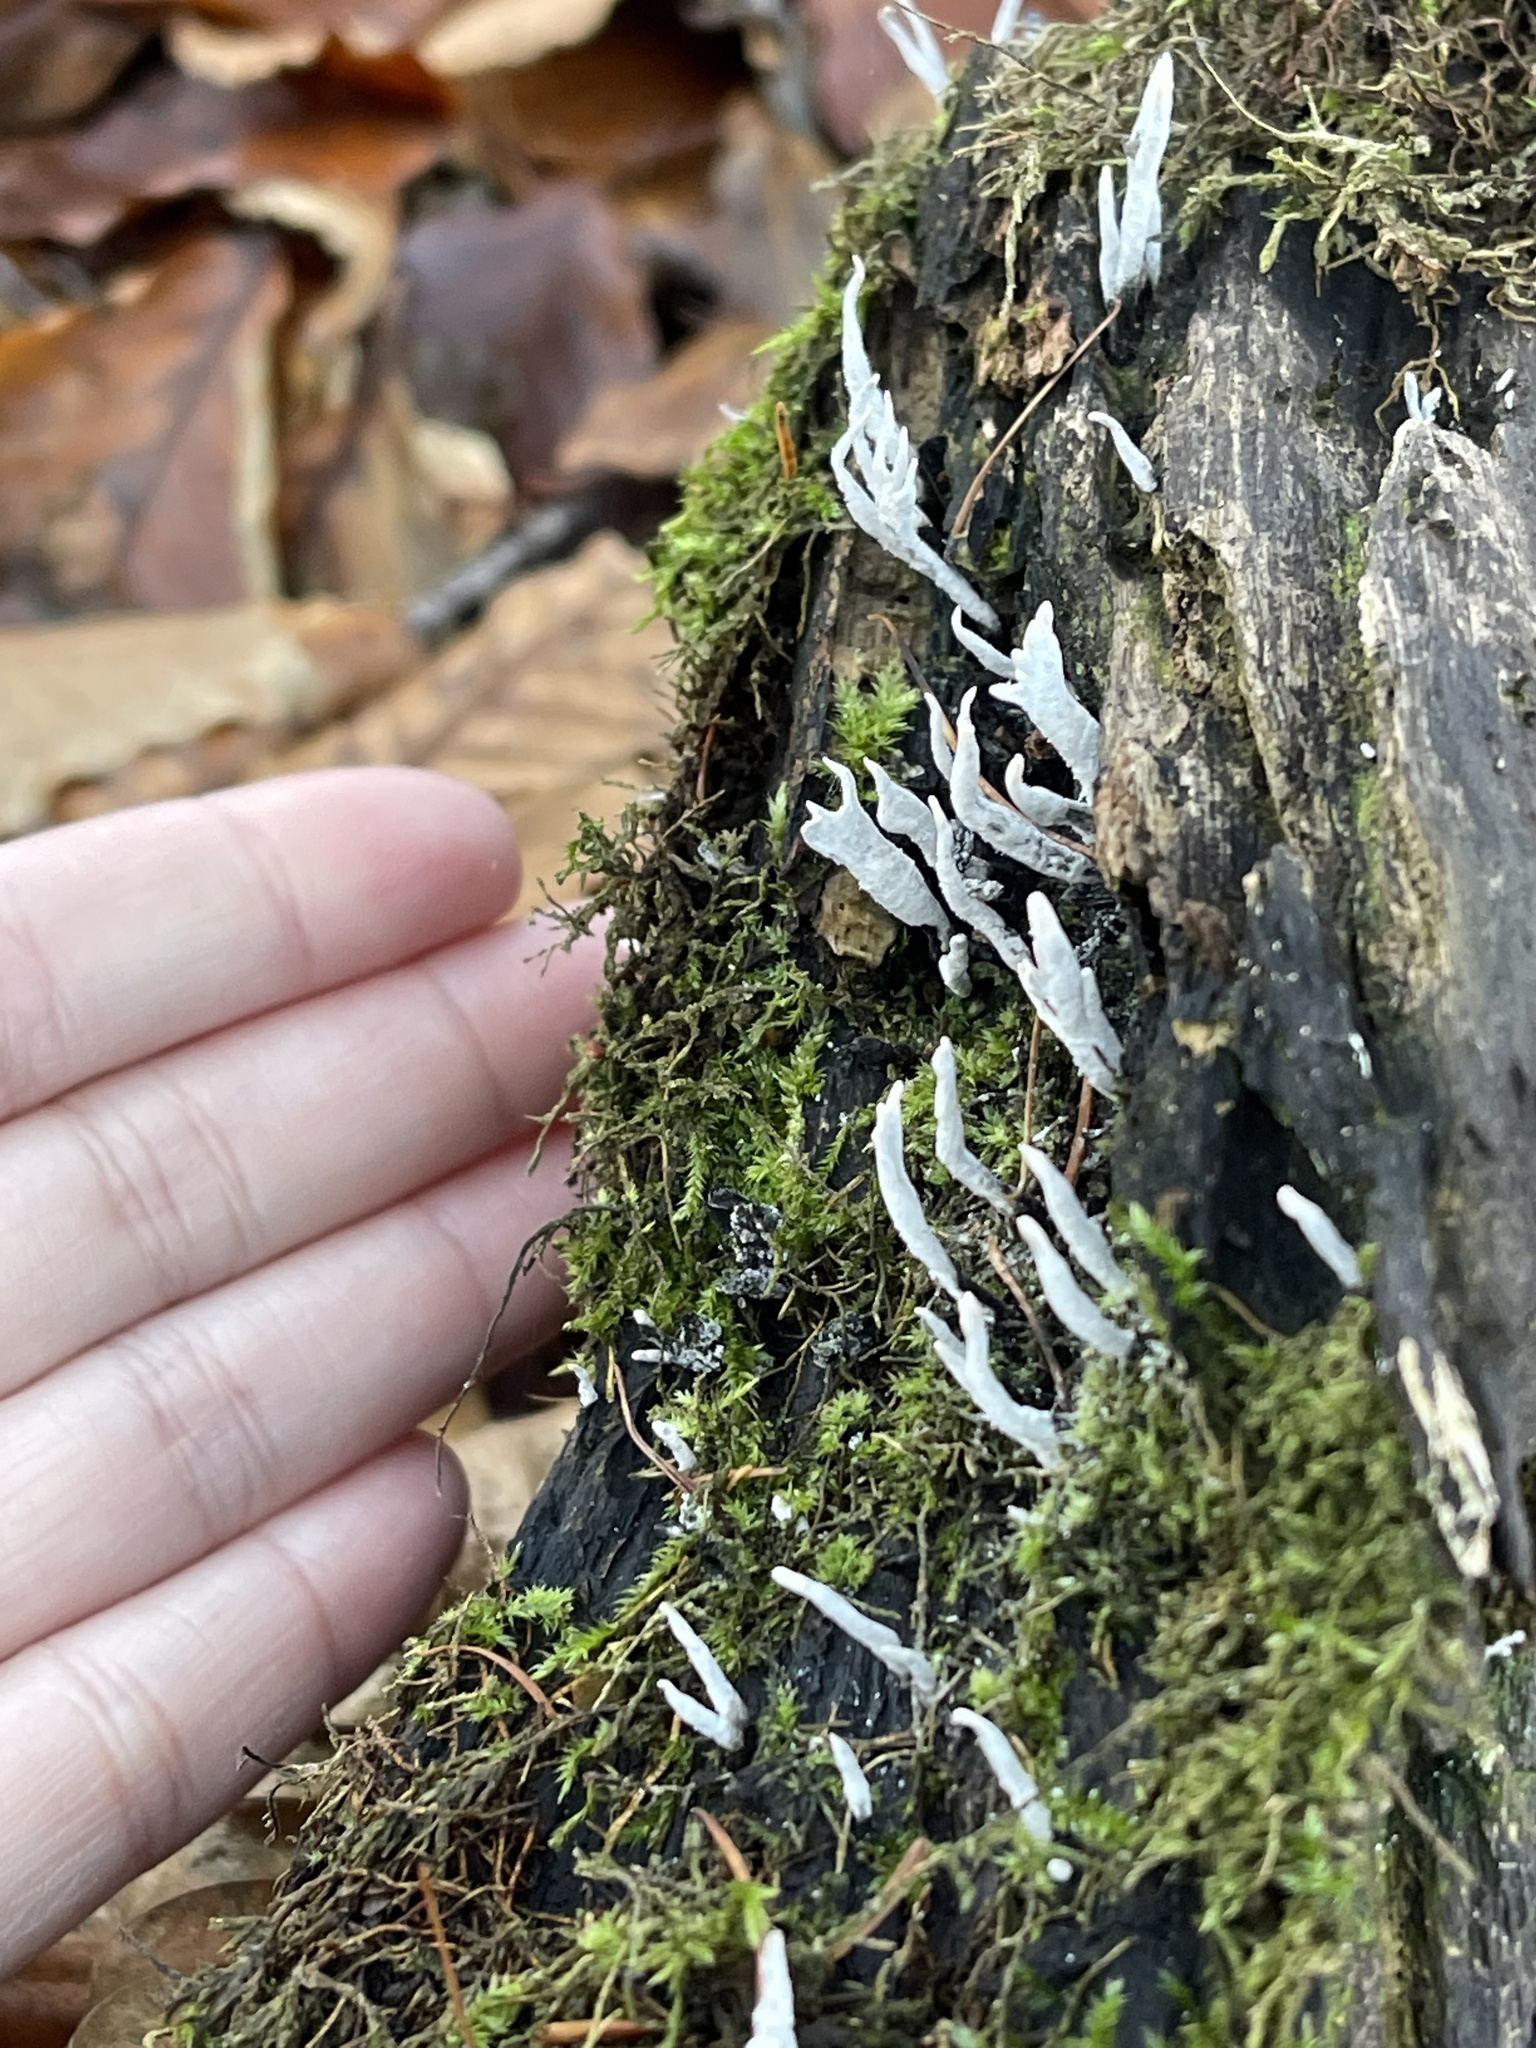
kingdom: Fungi
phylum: Ascomycota
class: Sordariomycetes
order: Xylariales
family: Xylariaceae
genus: Xylaria
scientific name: Xylaria hypoxylon
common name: Candle-snuff fungus
